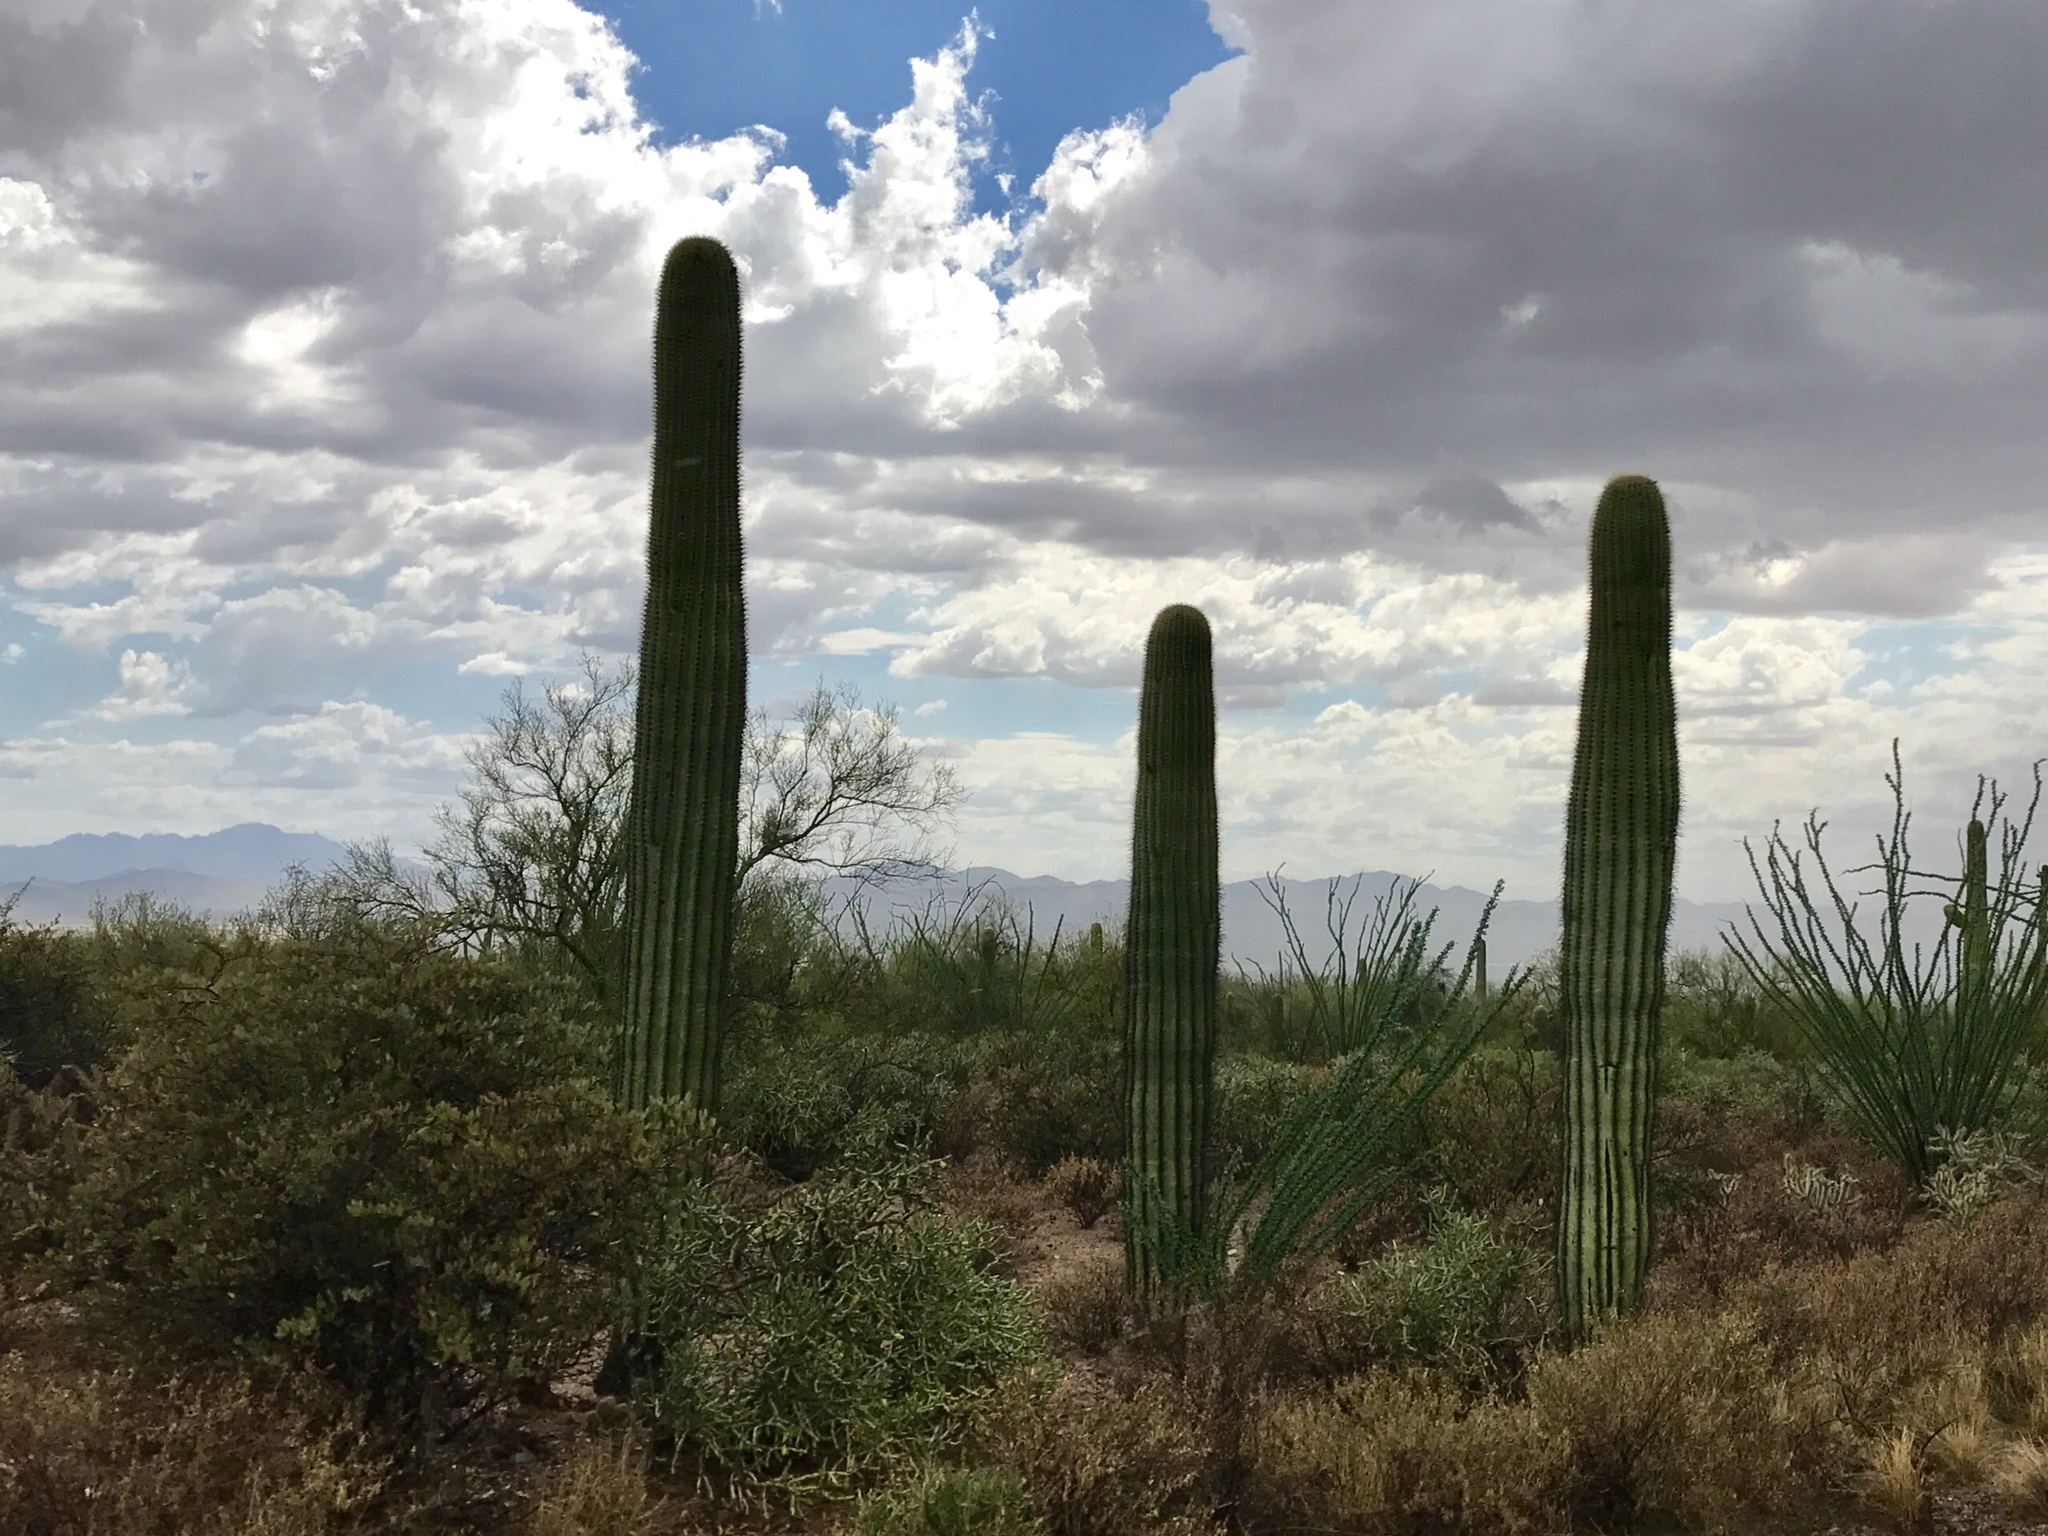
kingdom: Plantae
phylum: Tracheophyta
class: Magnoliopsida
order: Caryophyllales
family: Cactaceae
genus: Carnegiea
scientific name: Carnegiea gigantea
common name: Saguaro
